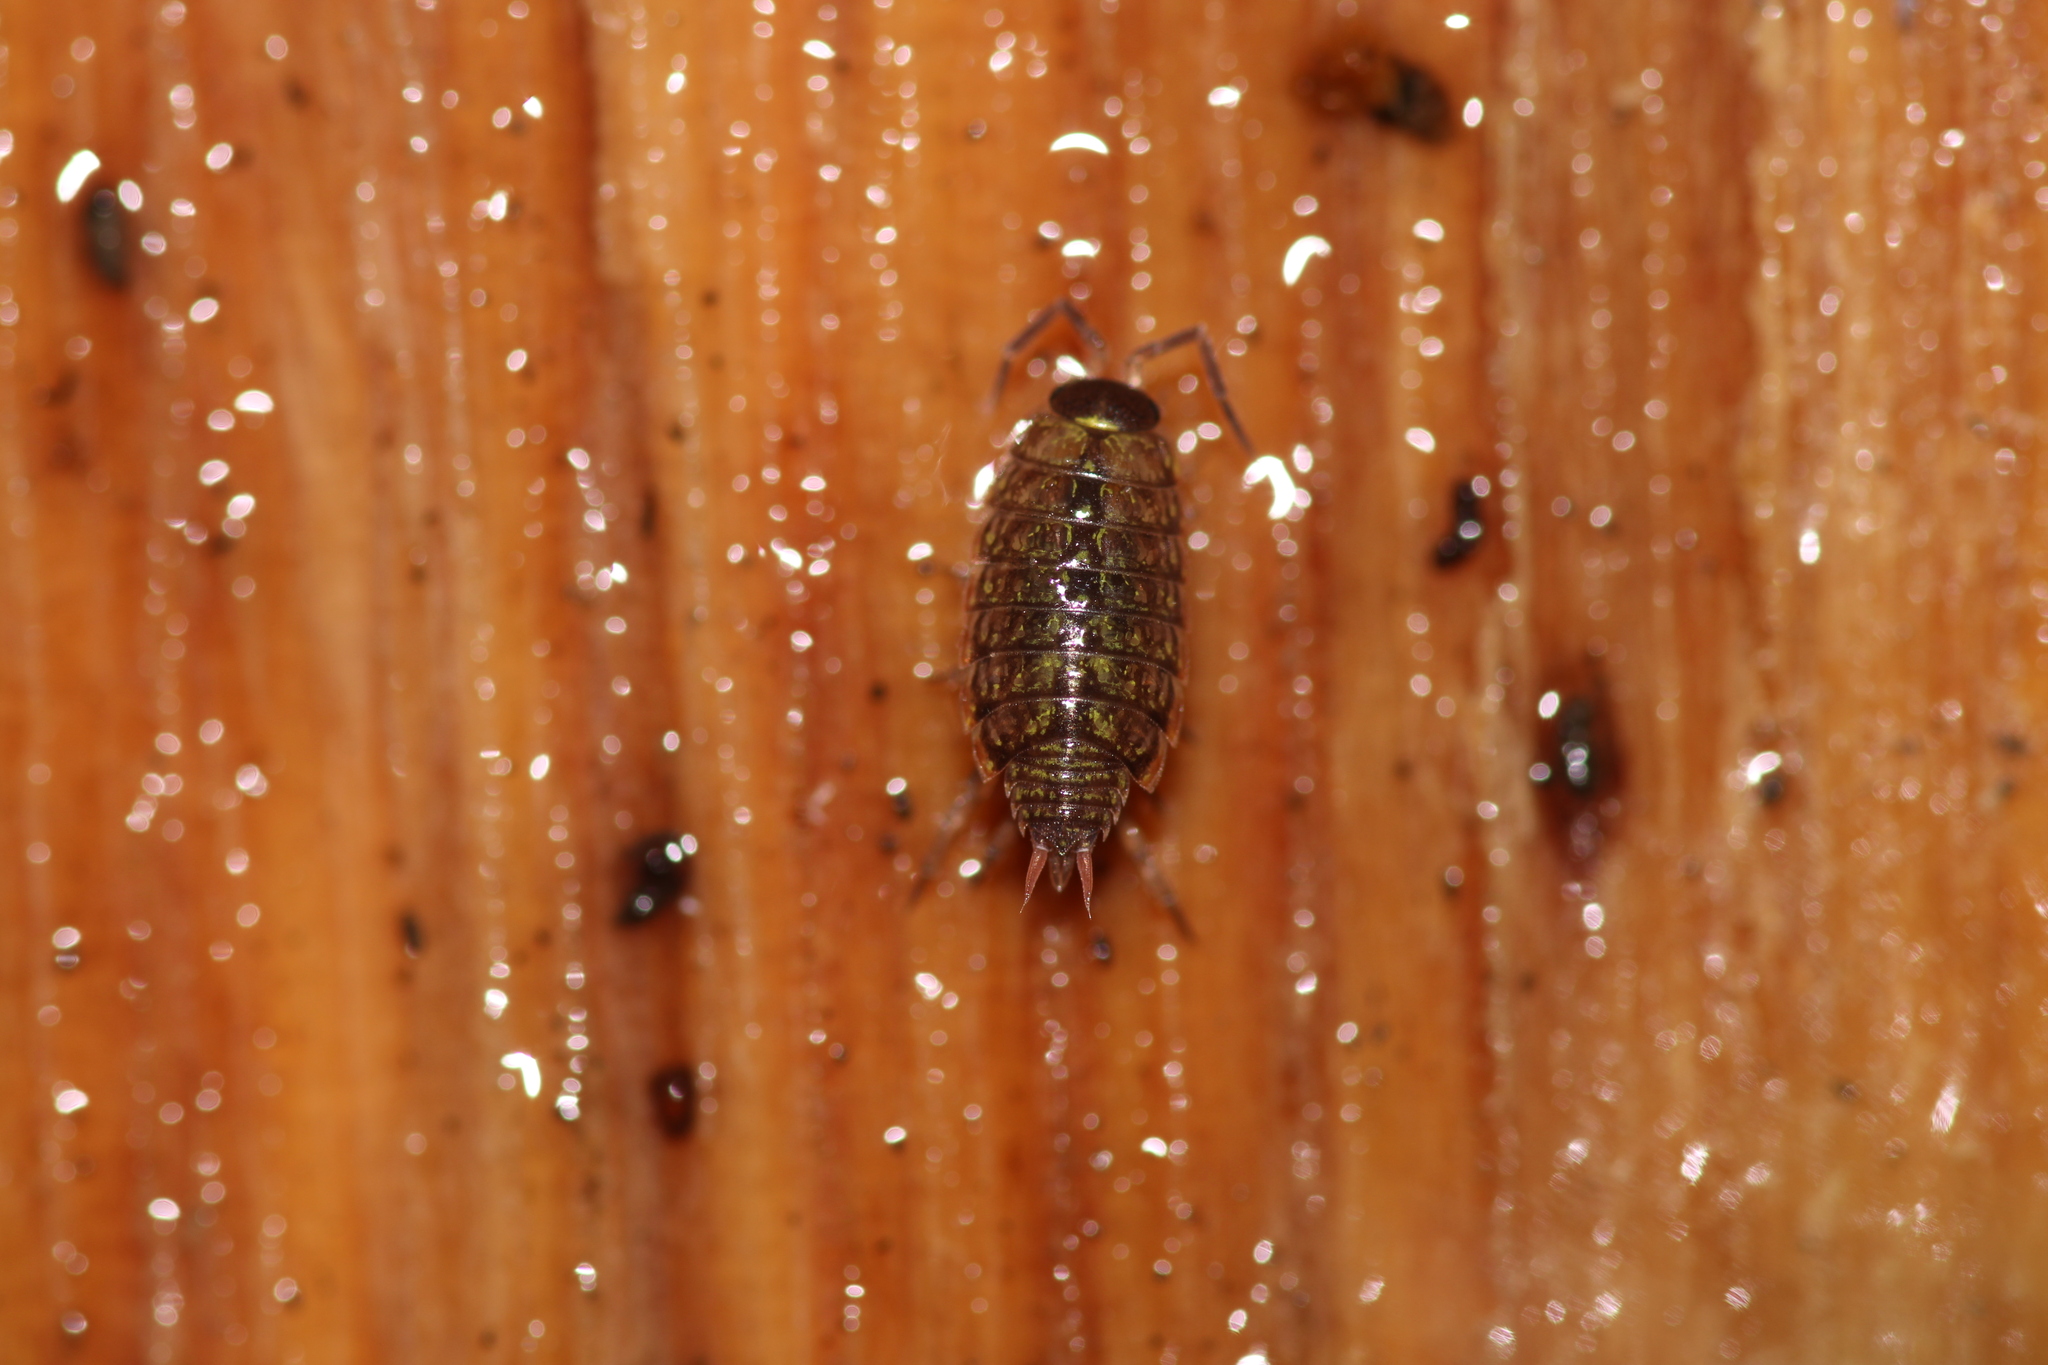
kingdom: Animalia
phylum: Arthropoda
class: Malacostraca
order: Isopoda
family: Philosciidae
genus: Philoscia
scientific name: Philoscia muscorum
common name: Common striped woodlouse
